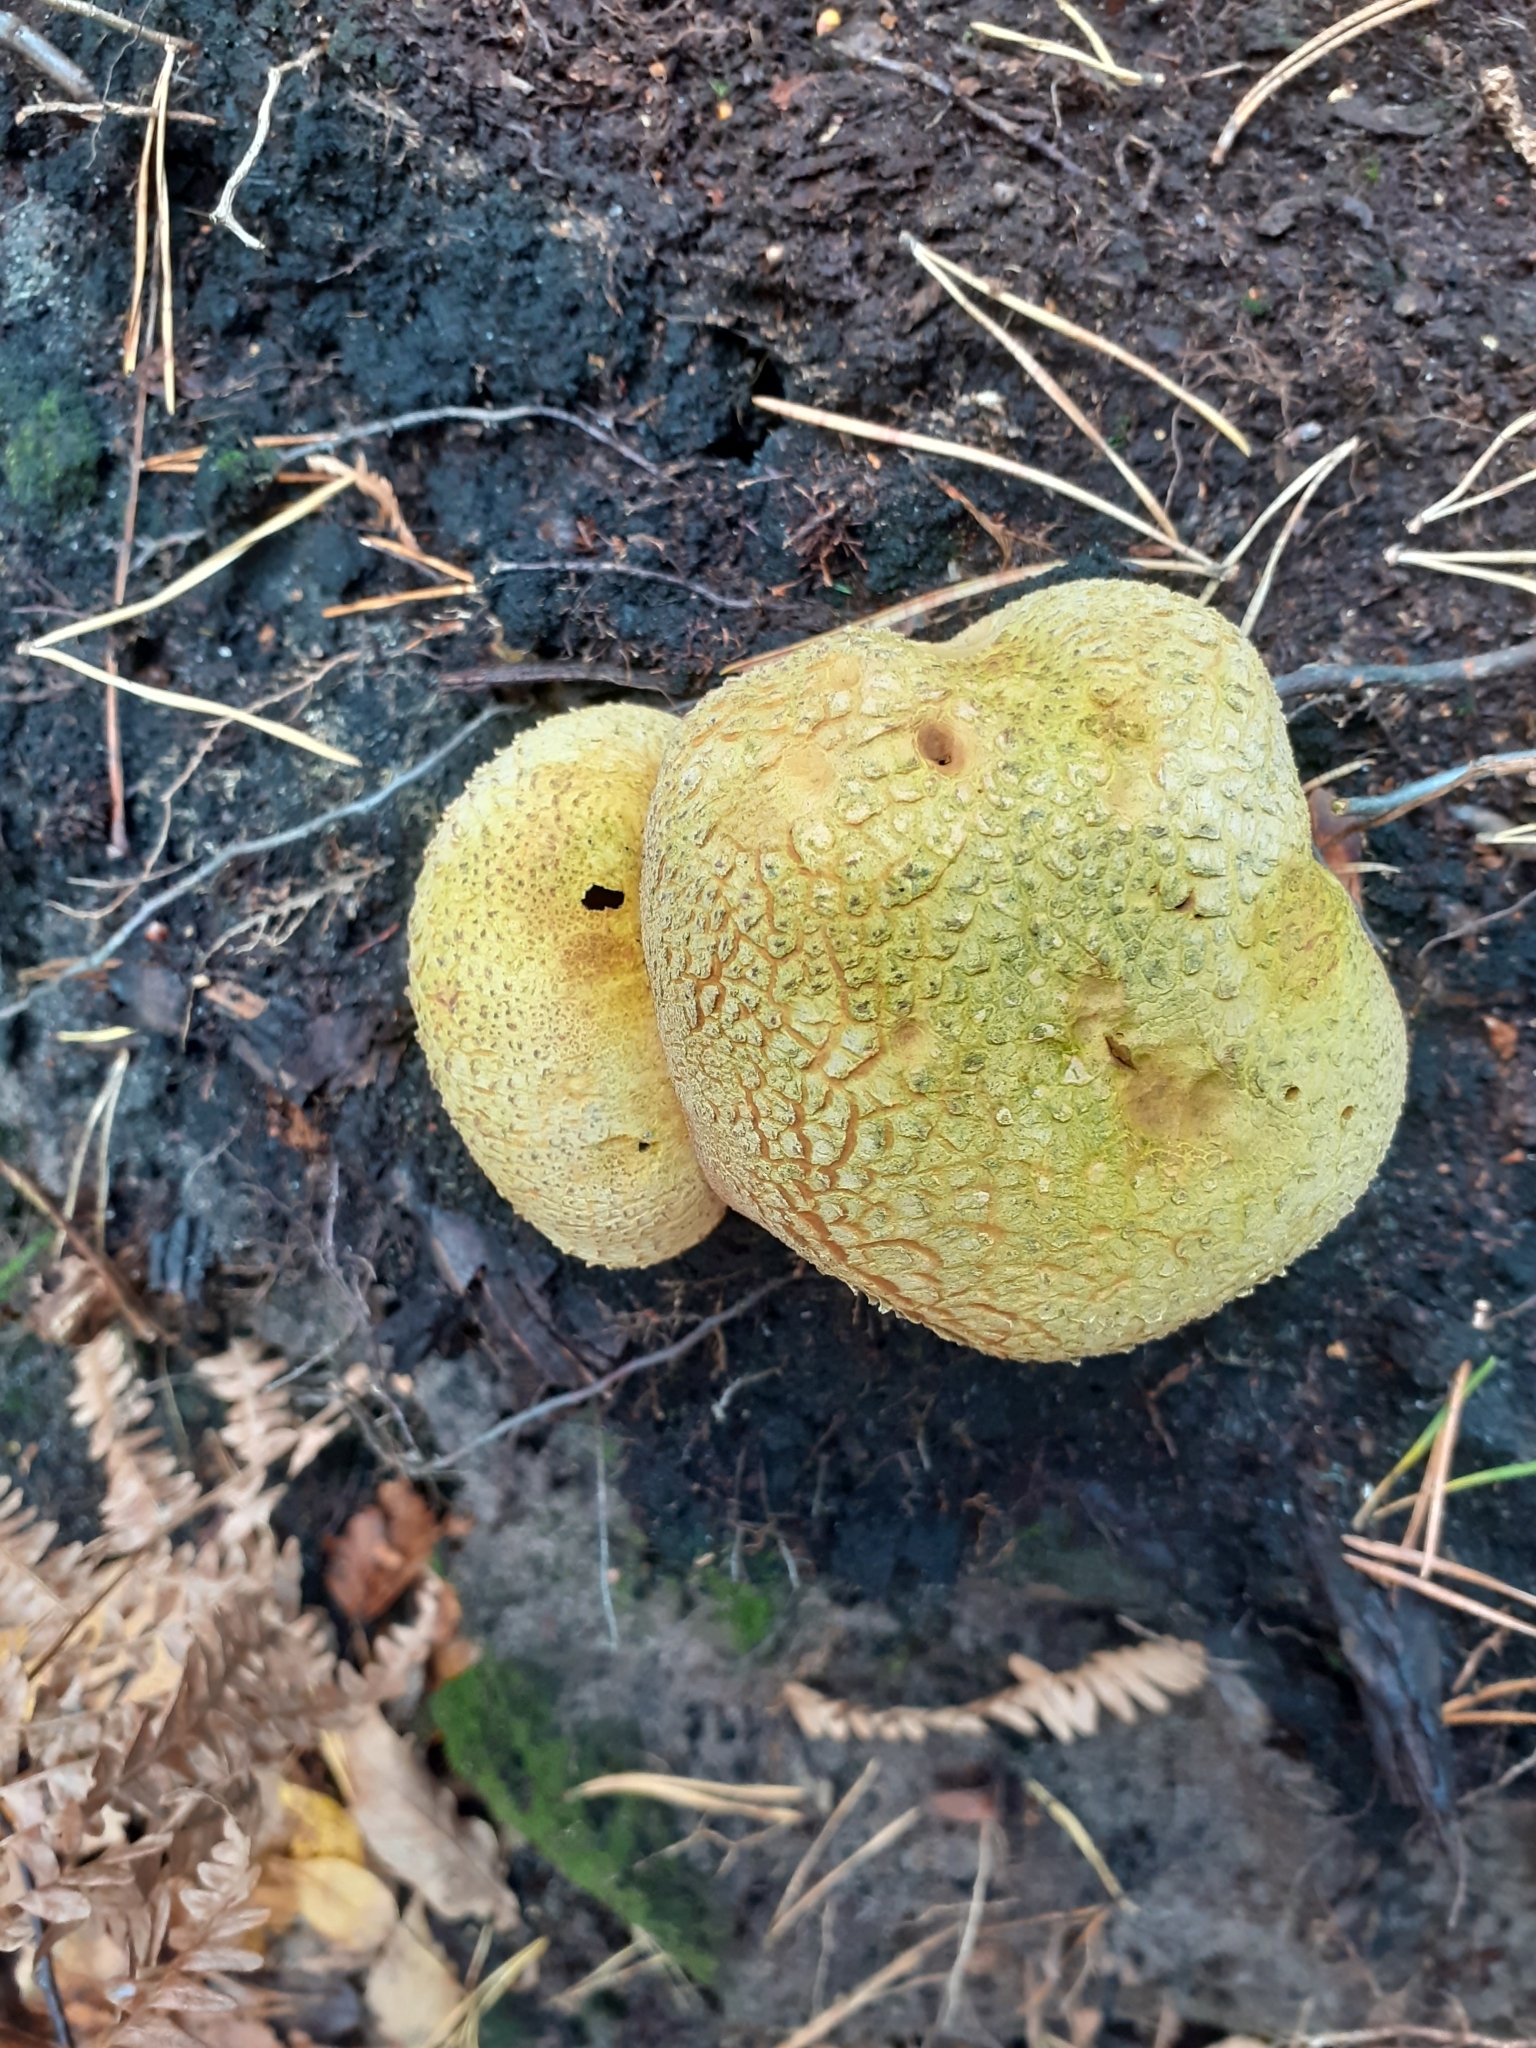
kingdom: Fungi
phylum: Basidiomycota
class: Agaricomycetes
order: Boletales
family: Sclerodermataceae
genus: Scleroderma
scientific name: Scleroderma citrinum
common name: Common earthball
